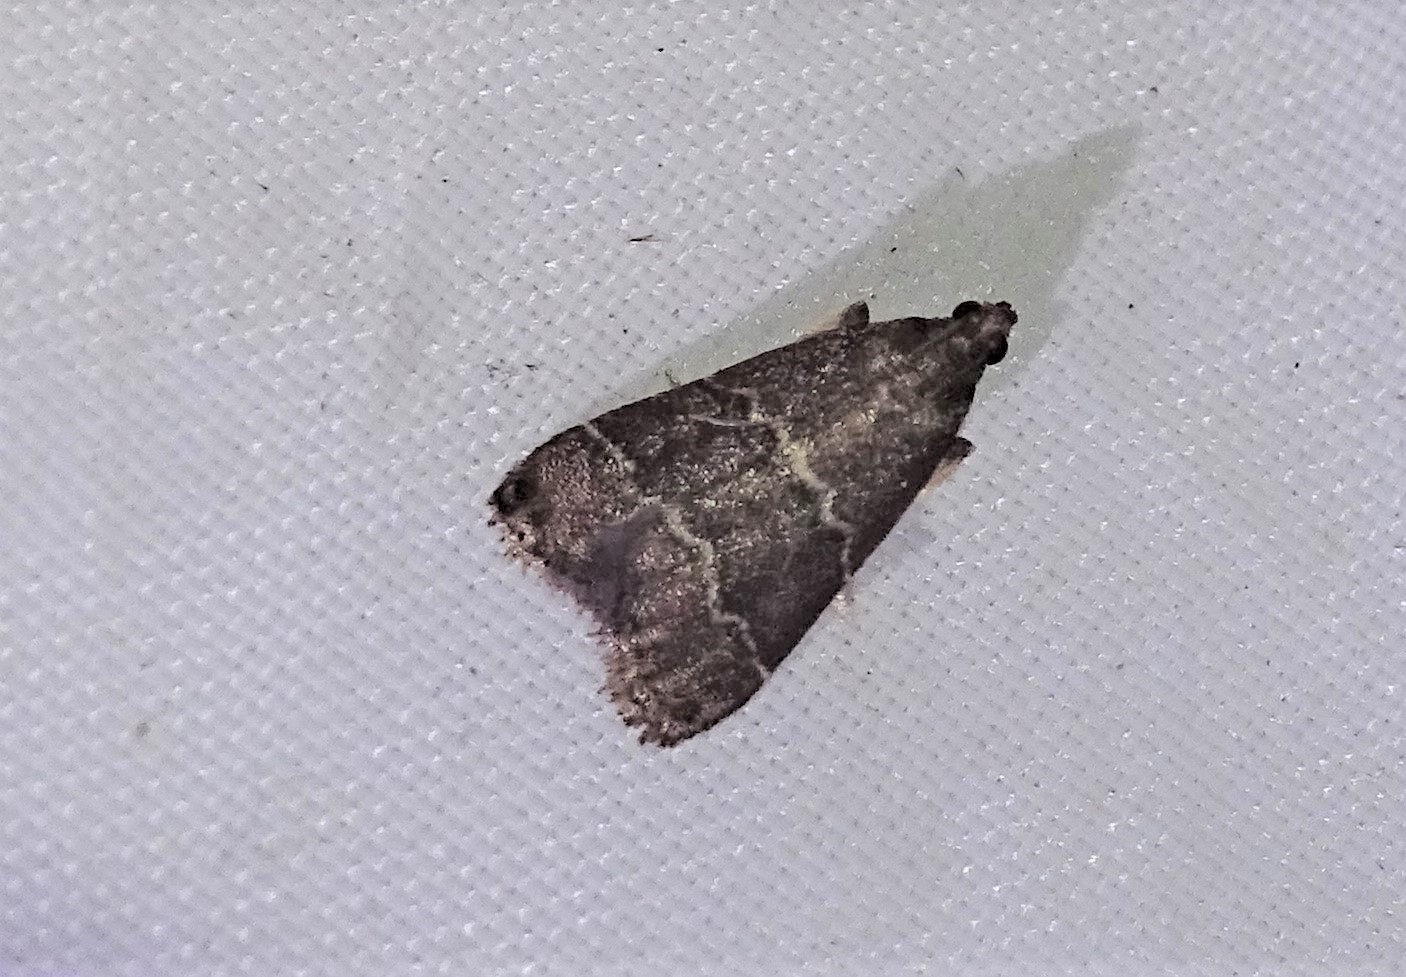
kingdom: Animalia
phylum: Arthropoda
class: Insecta
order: Lepidoptera
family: Pyralidae
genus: Arta
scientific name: Arta
